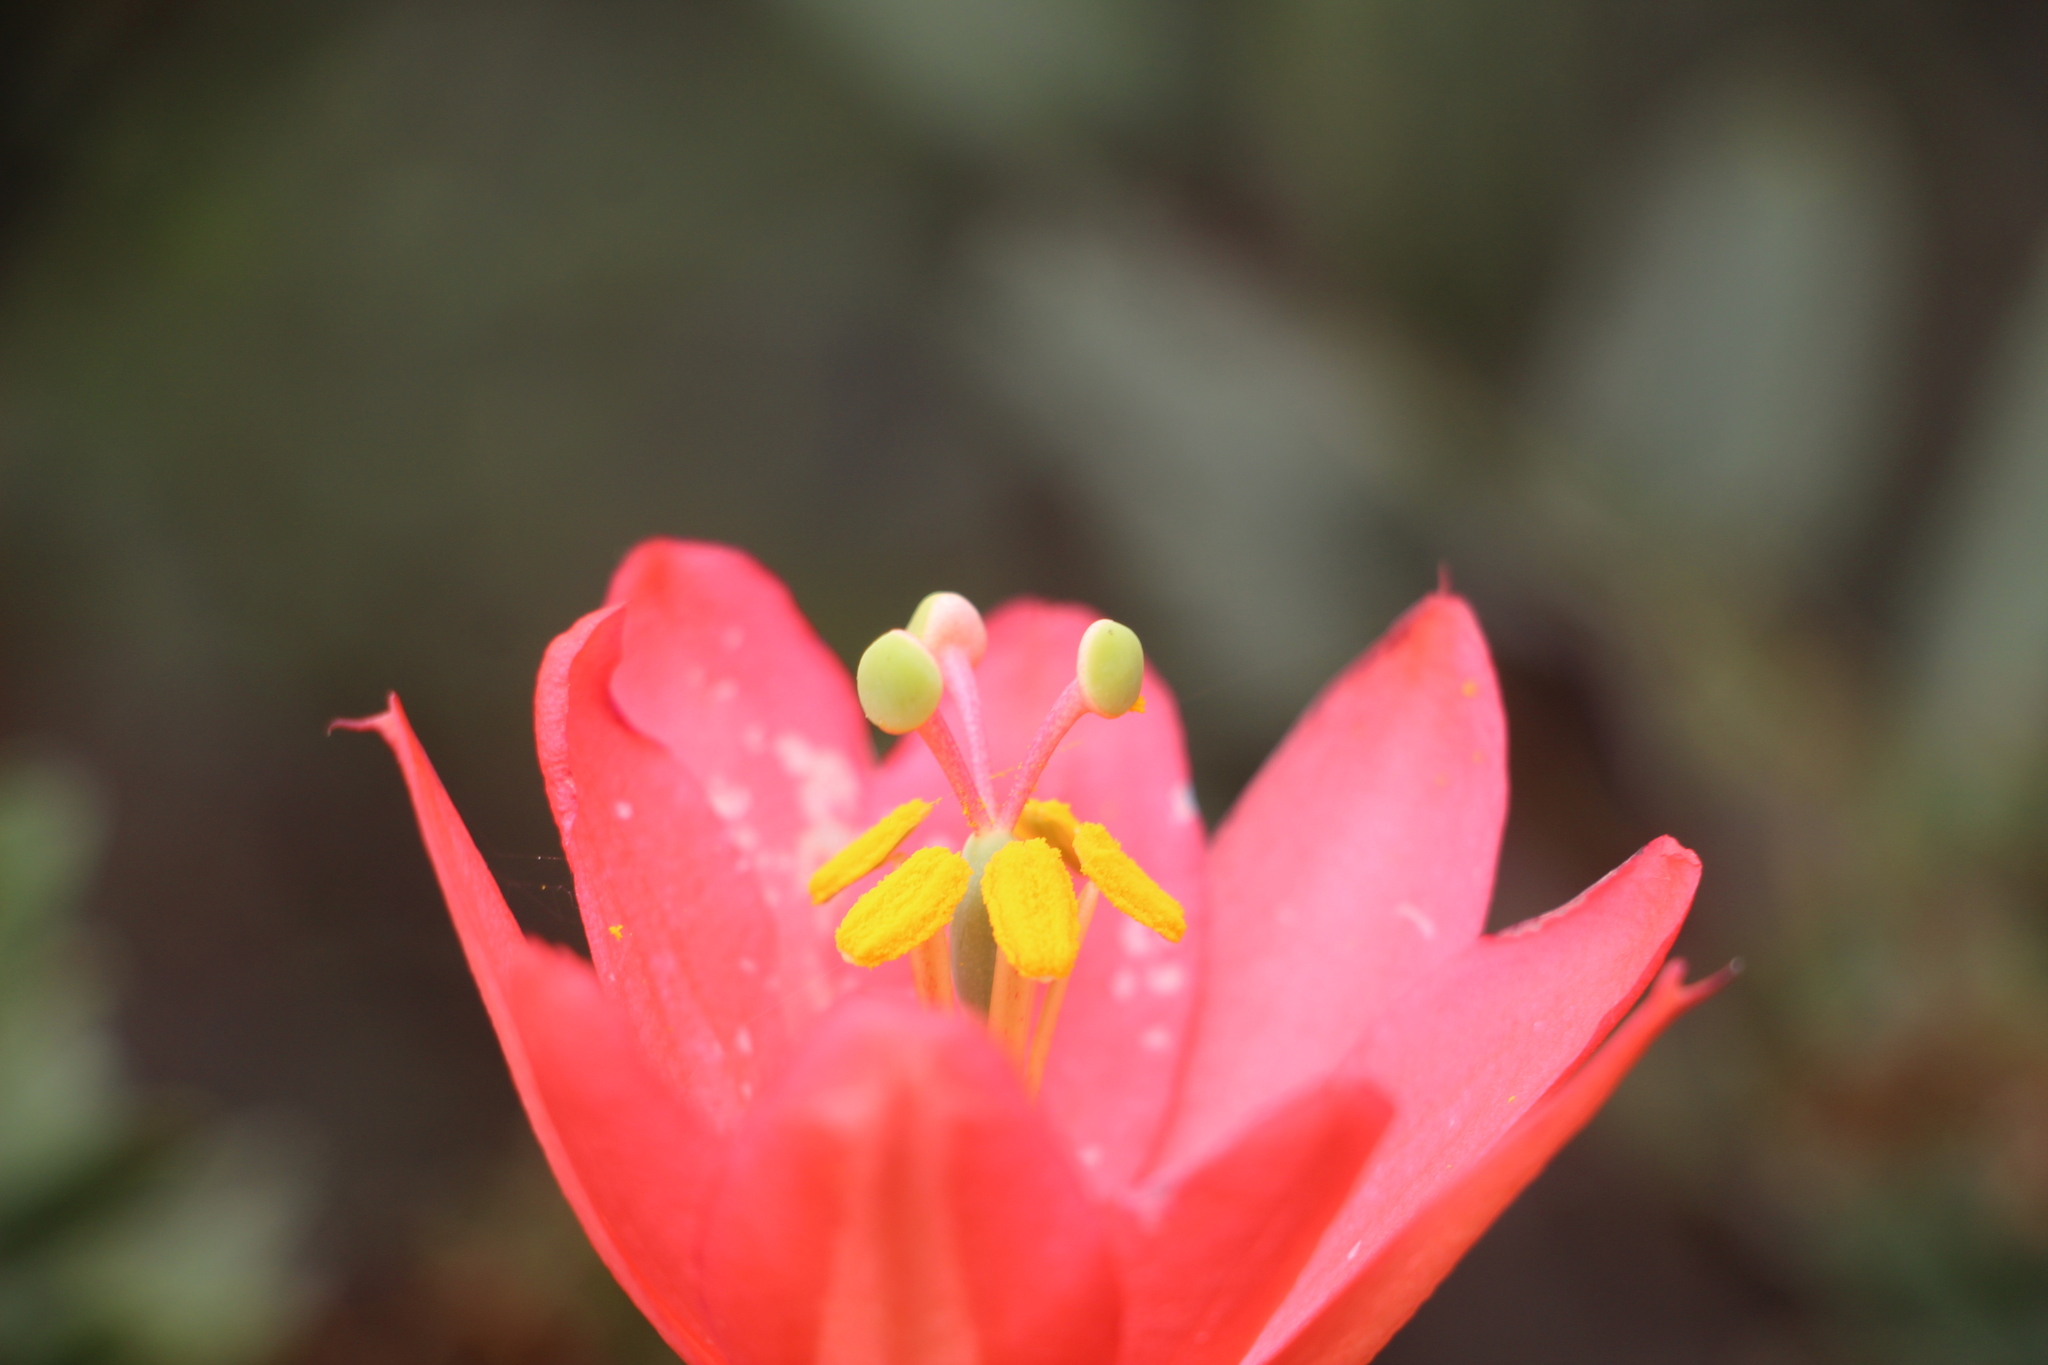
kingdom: Plantae
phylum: Tracheophyta
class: Magnoliopsida
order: Malpighiales
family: Passifloraceae
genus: Passiflora
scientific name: Passiflora adulterina
